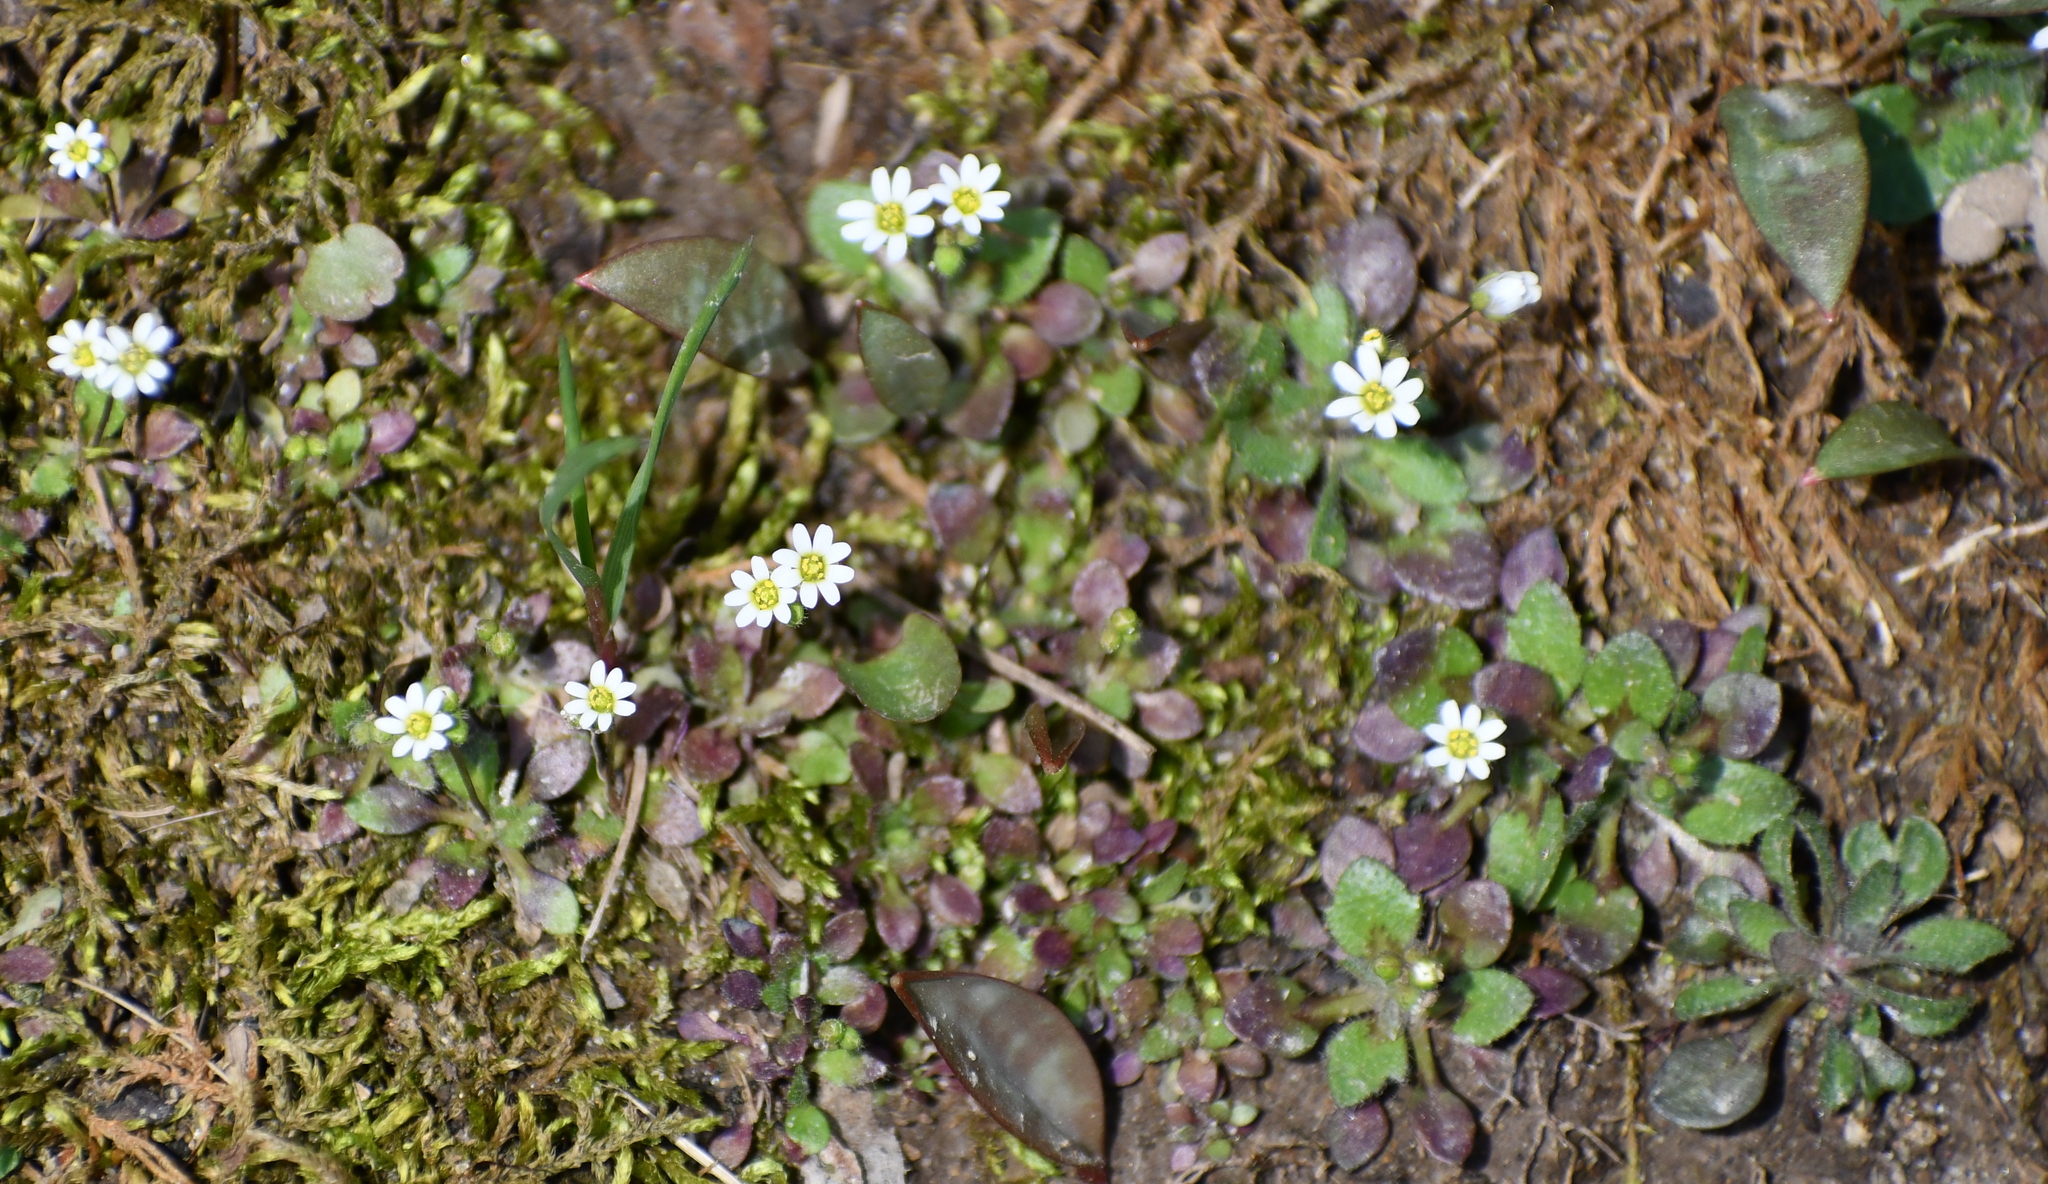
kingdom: Plantae
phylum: Tracheophyta
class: Magnoliopsida
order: Brassicales
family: Brassicaceae
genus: Draba
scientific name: Draba verna
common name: Spring draba
